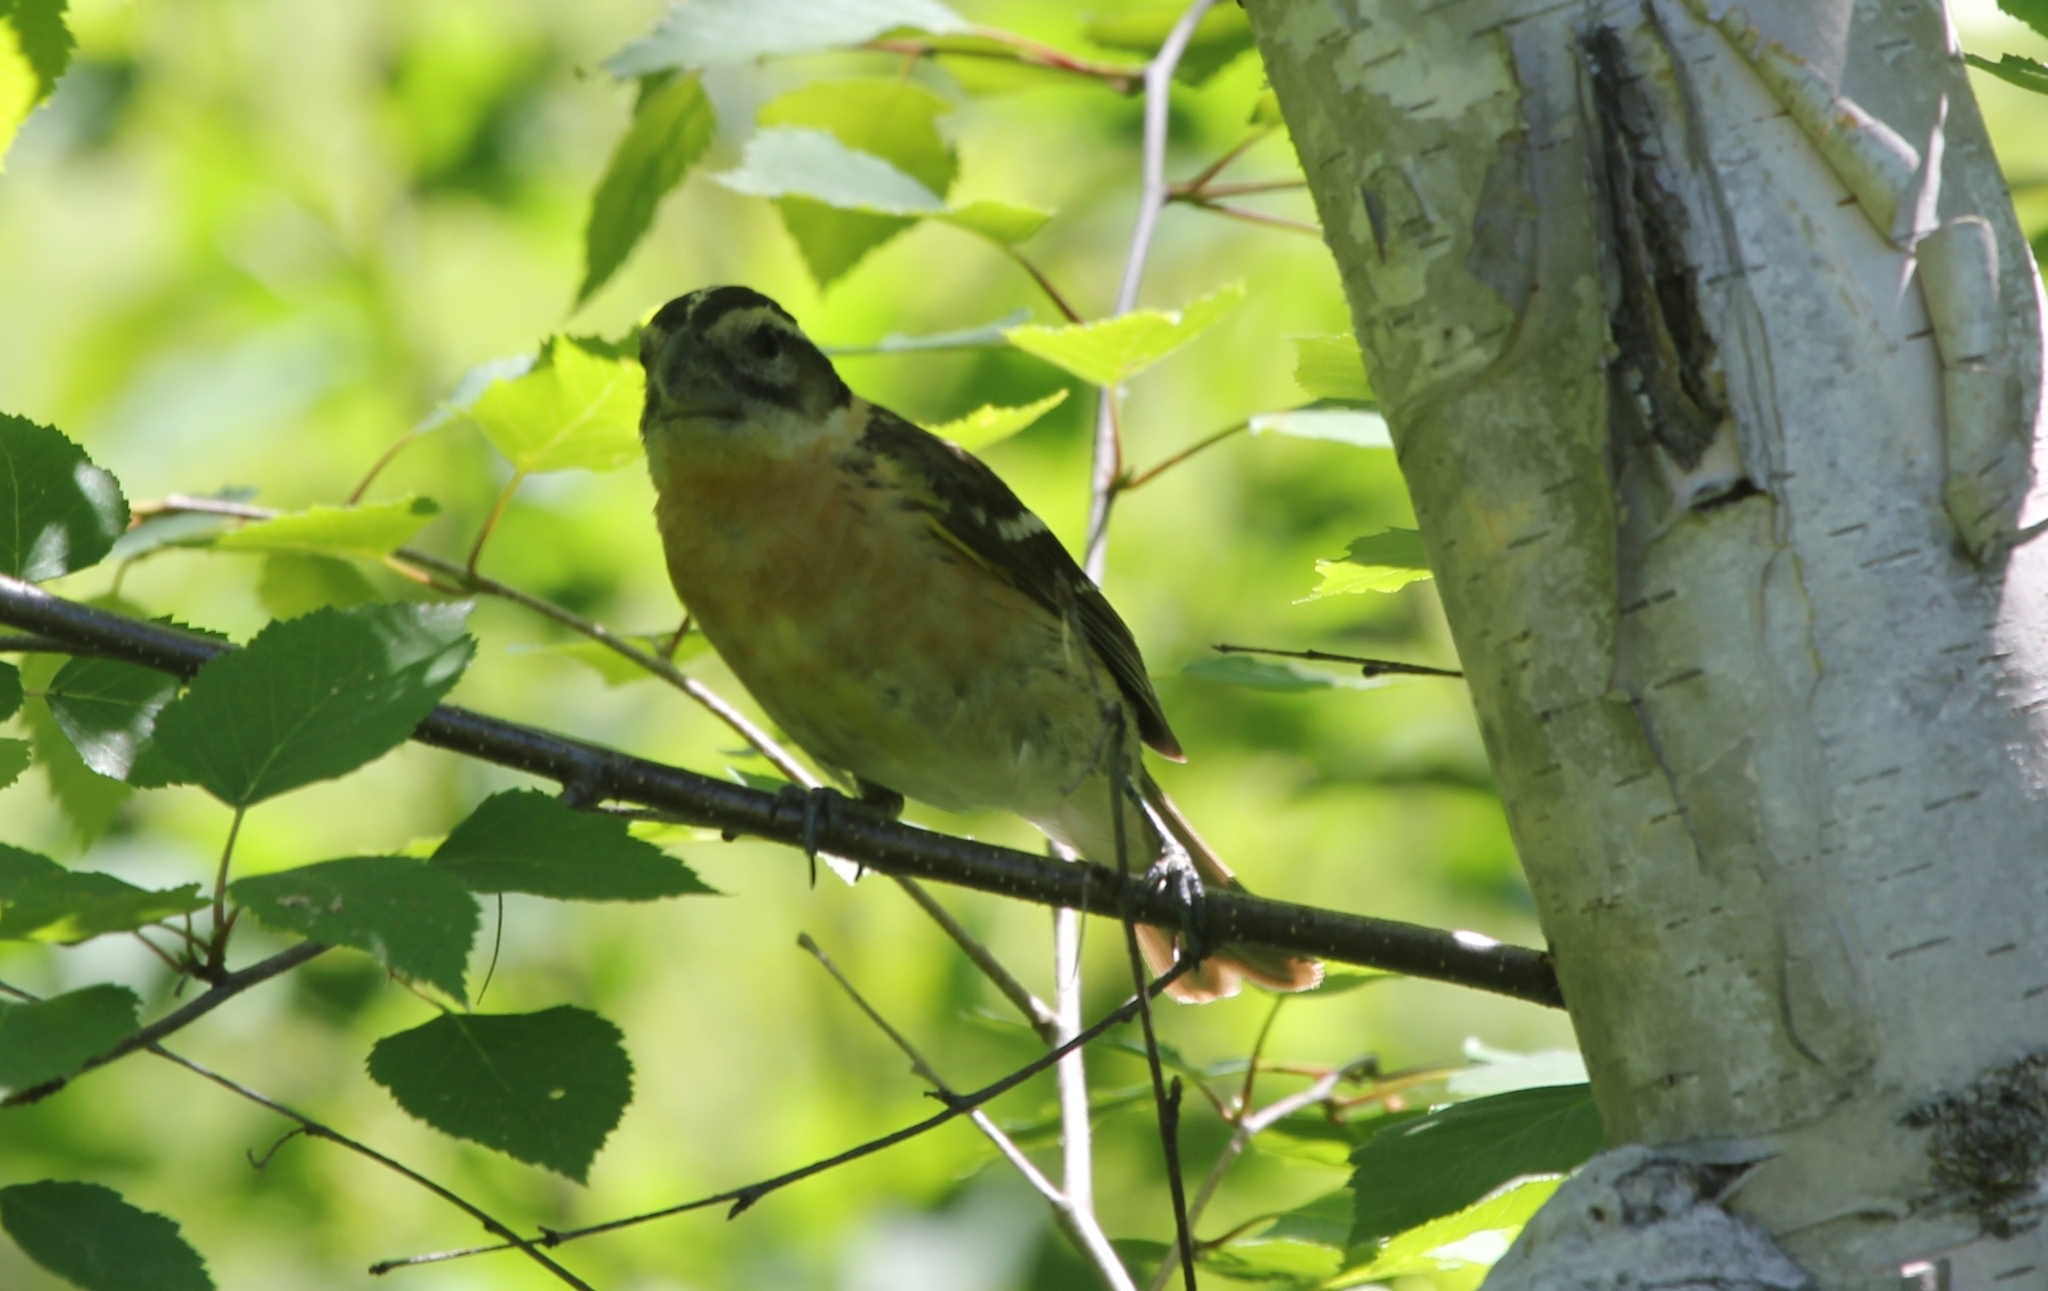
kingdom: Animalia
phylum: Chordata
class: Aves
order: Passeriformes
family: Cardinalidae
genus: Pheucticus
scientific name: Pheucticus melanocephalus
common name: Black-headed grosbeak
